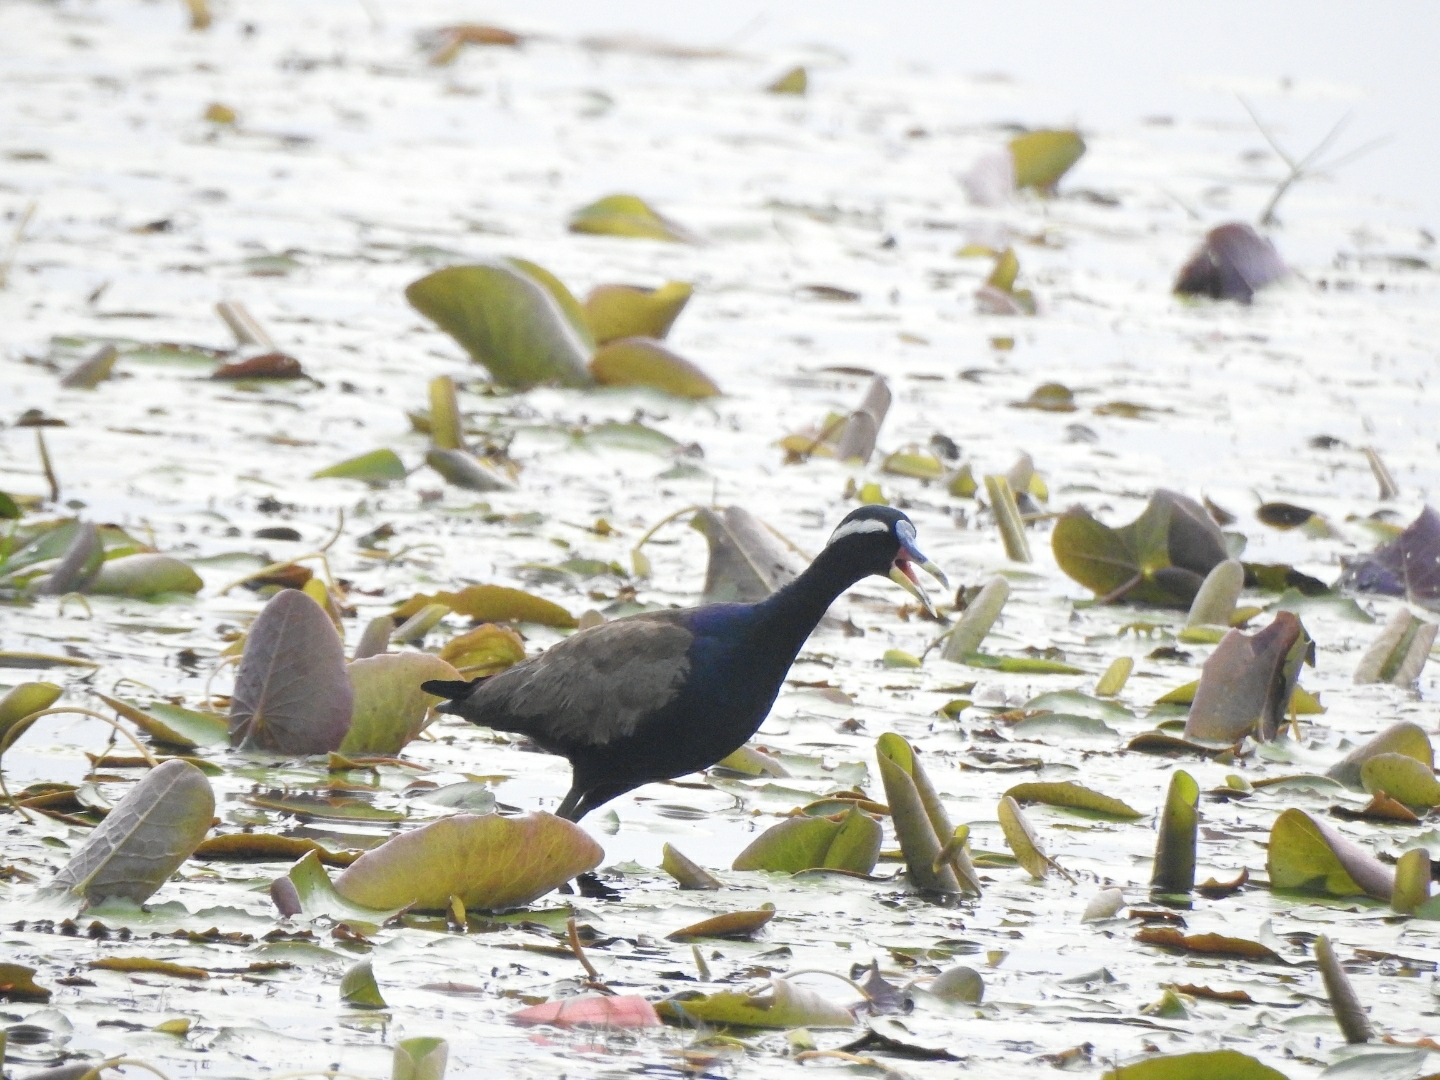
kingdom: Animalia
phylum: Chordata
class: Aves
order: Charadriiformes
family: Jacanidae
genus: Metopidius
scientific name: Metopidius indicus
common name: Bronze-winged jacana
